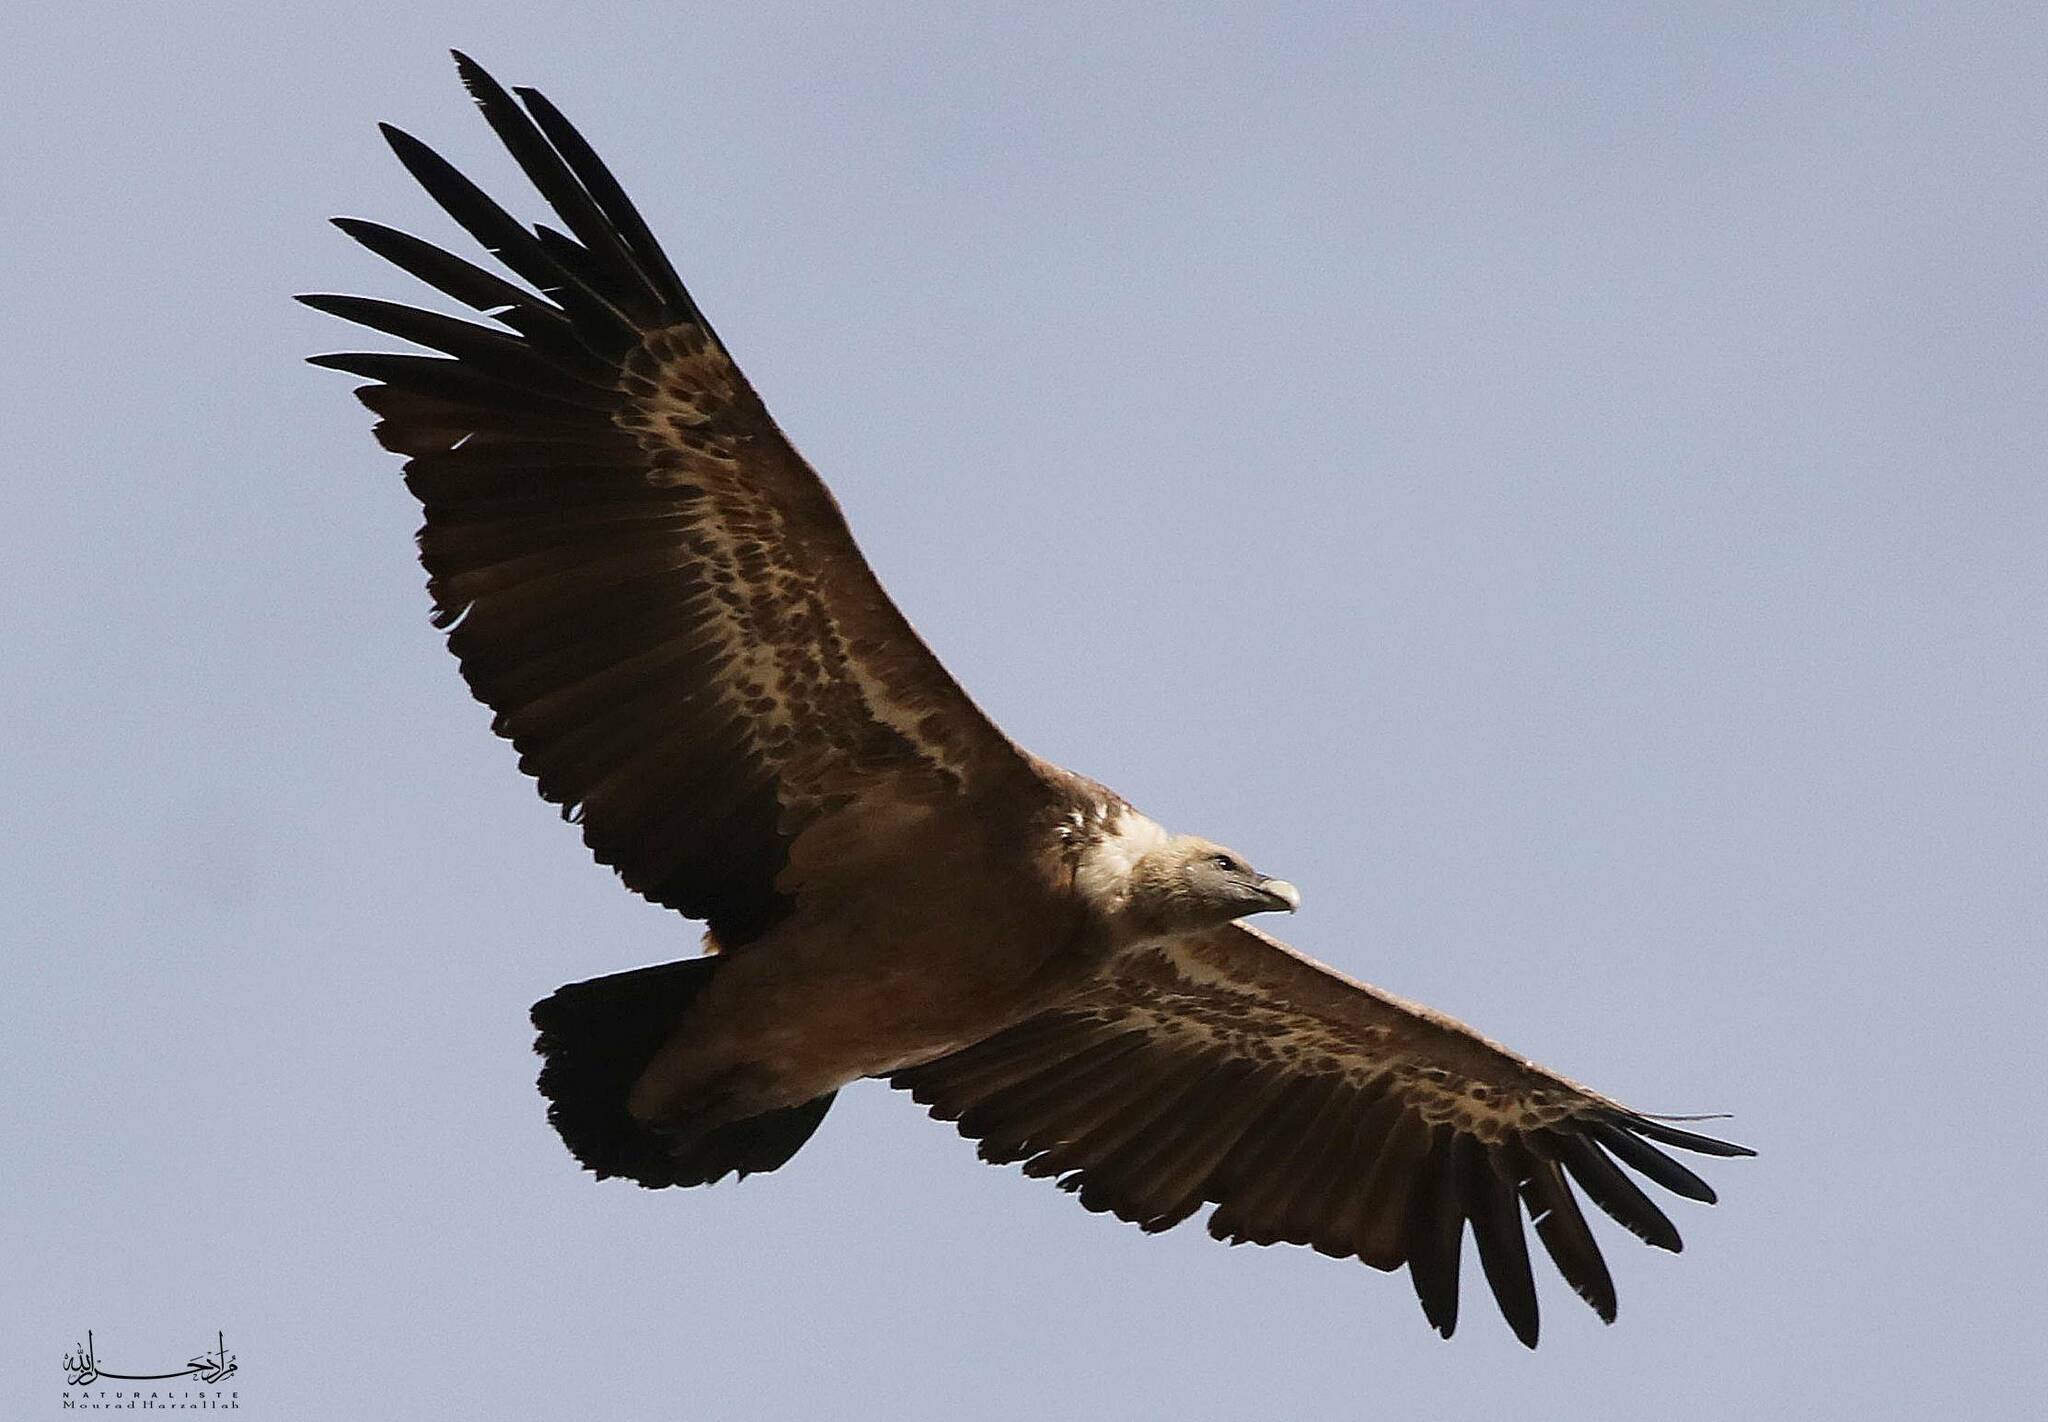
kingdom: Animalia
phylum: Chordata
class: Aves
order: Accipitriformes
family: Accipitridae
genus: Gyps
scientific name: Gyps fulvus
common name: Griffon vulture
